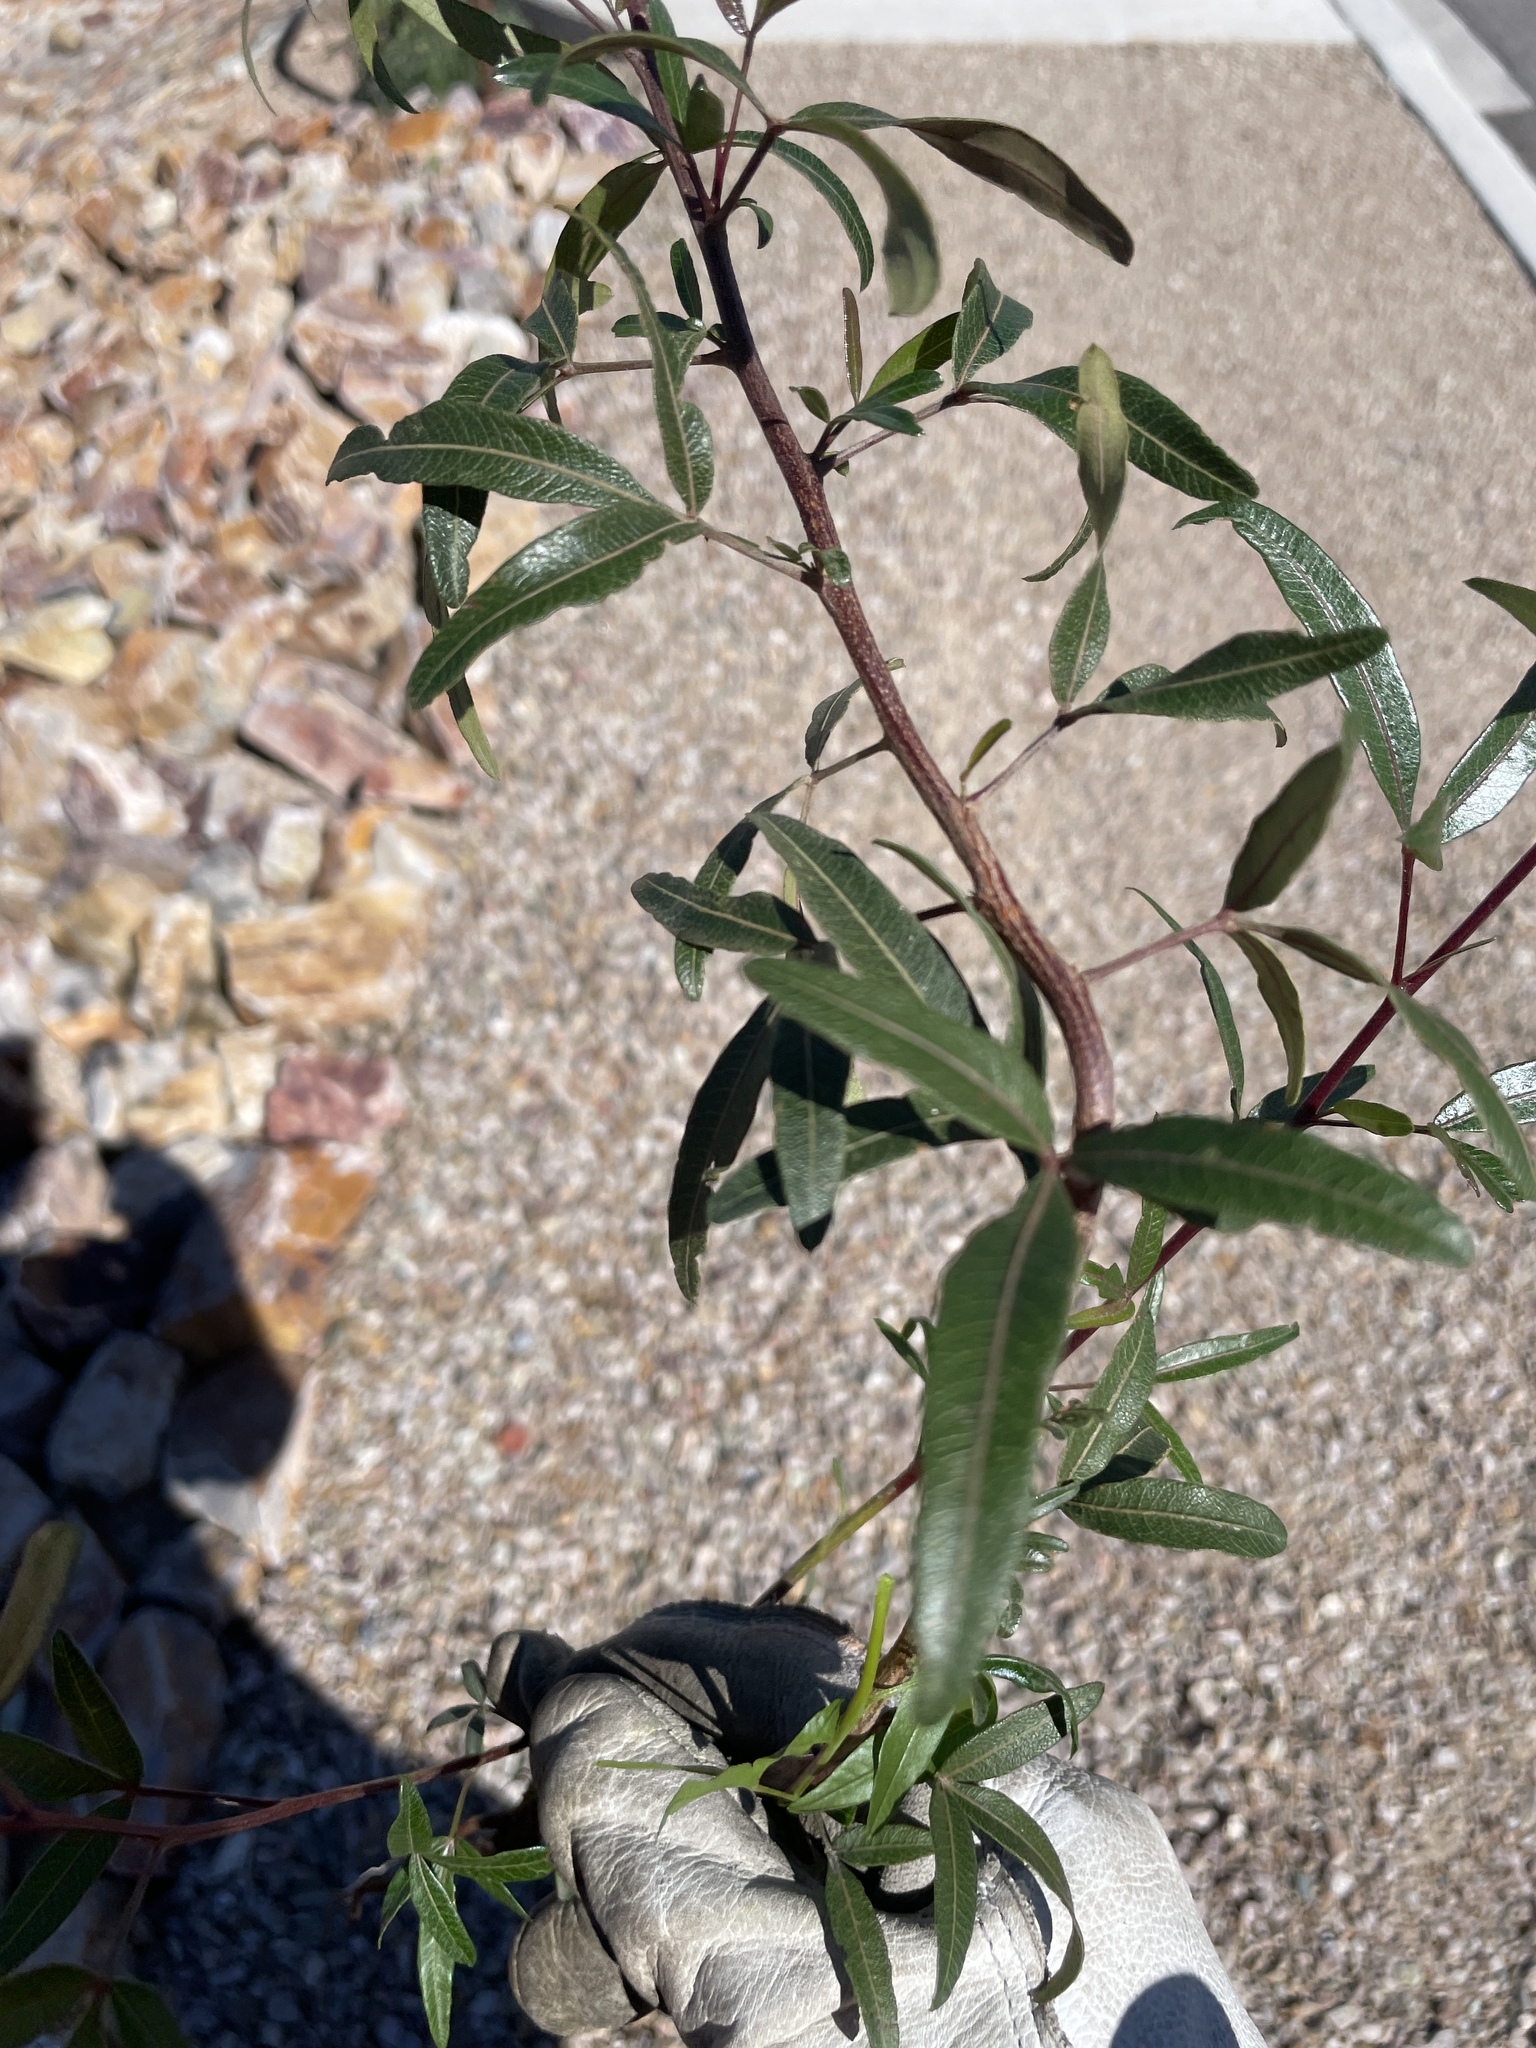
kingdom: Plantae
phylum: Tracheophyta
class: Magnoliopsida
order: Sapindales
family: Anacardiaceae
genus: Searsia
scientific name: Searsia lancea
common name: Cashew
